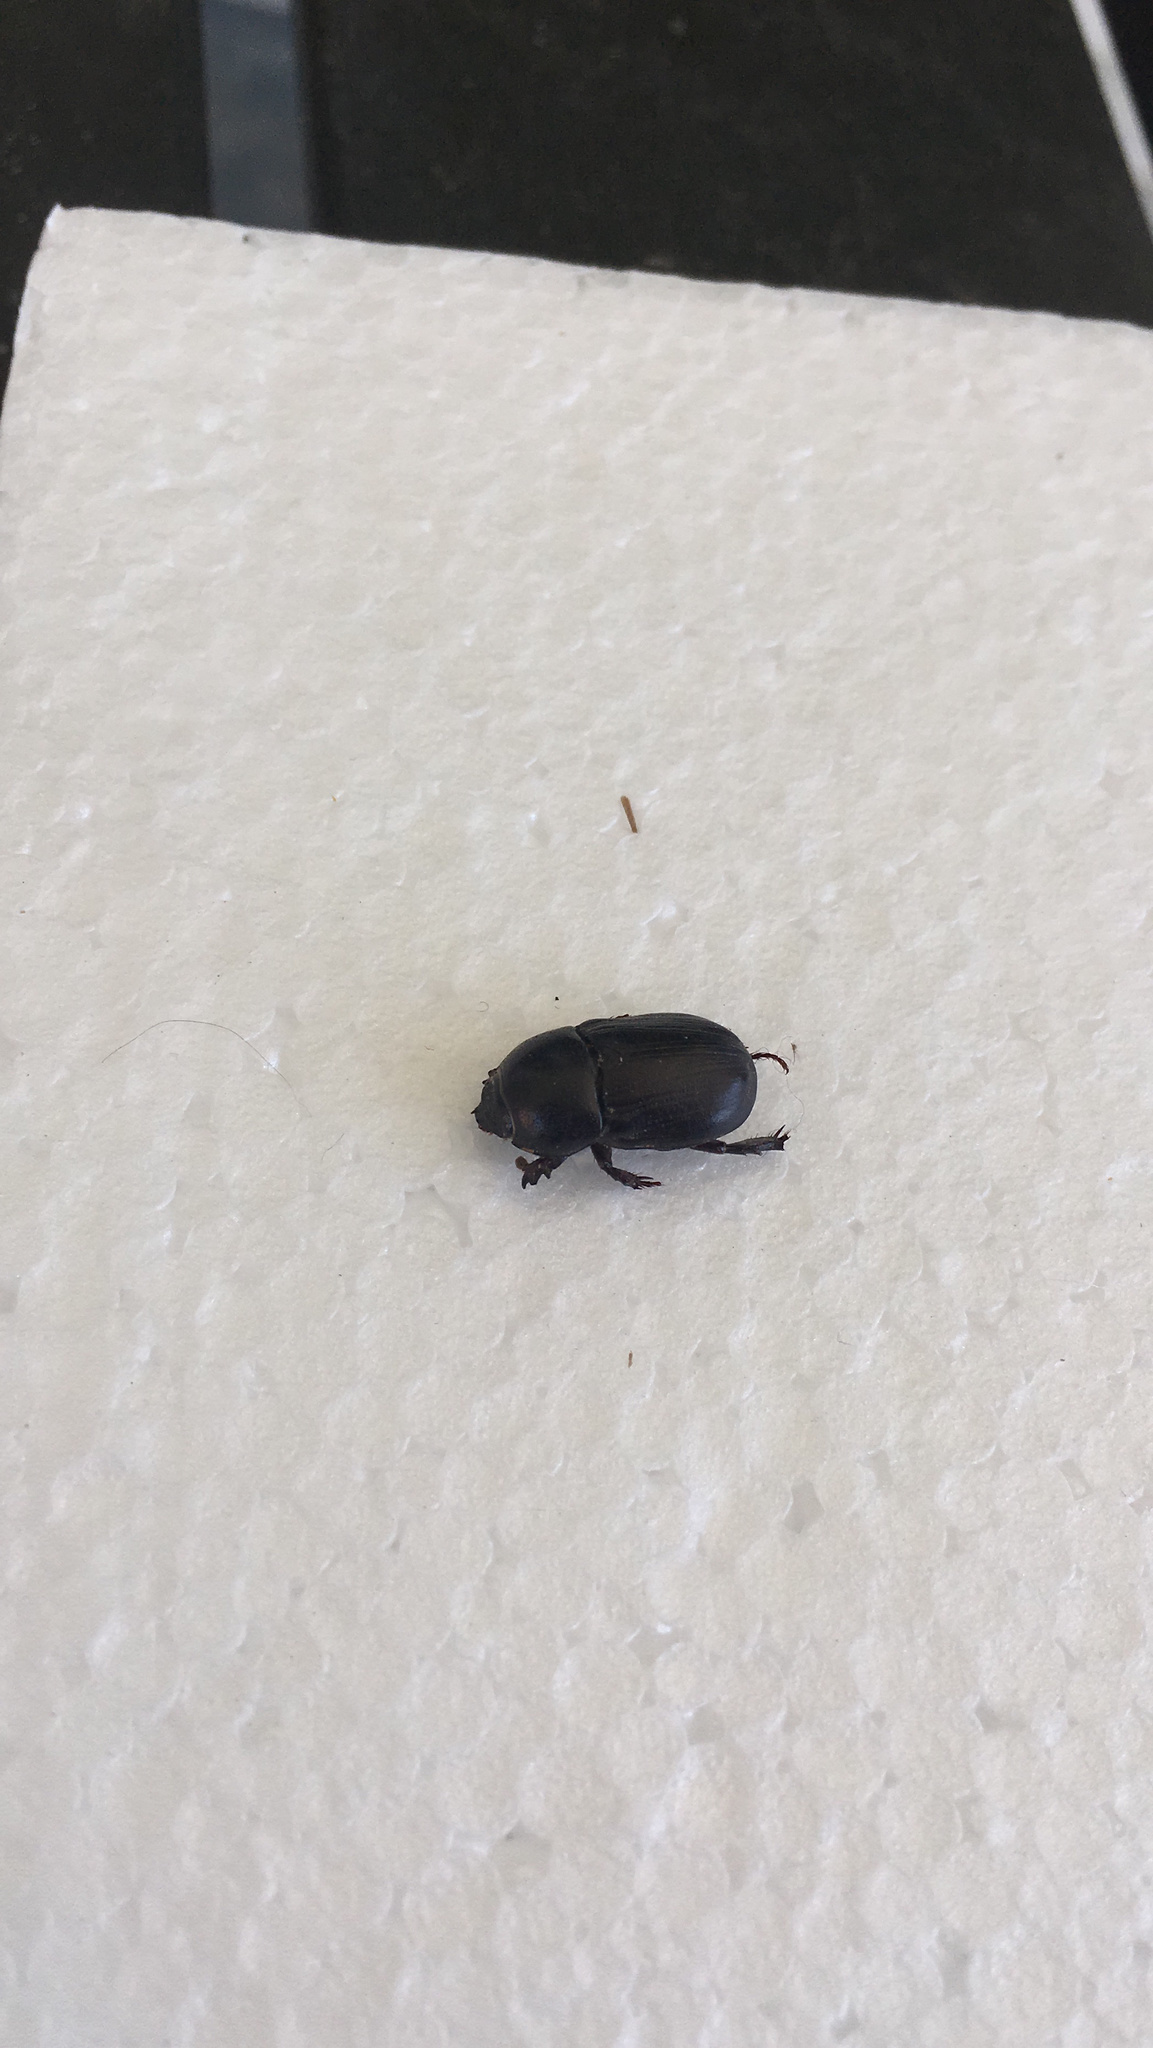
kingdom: Animalia
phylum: Arthropoda
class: Insecta
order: Coleoptera
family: Scarabaeidae
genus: Euetheola
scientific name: Euetheola humilis
